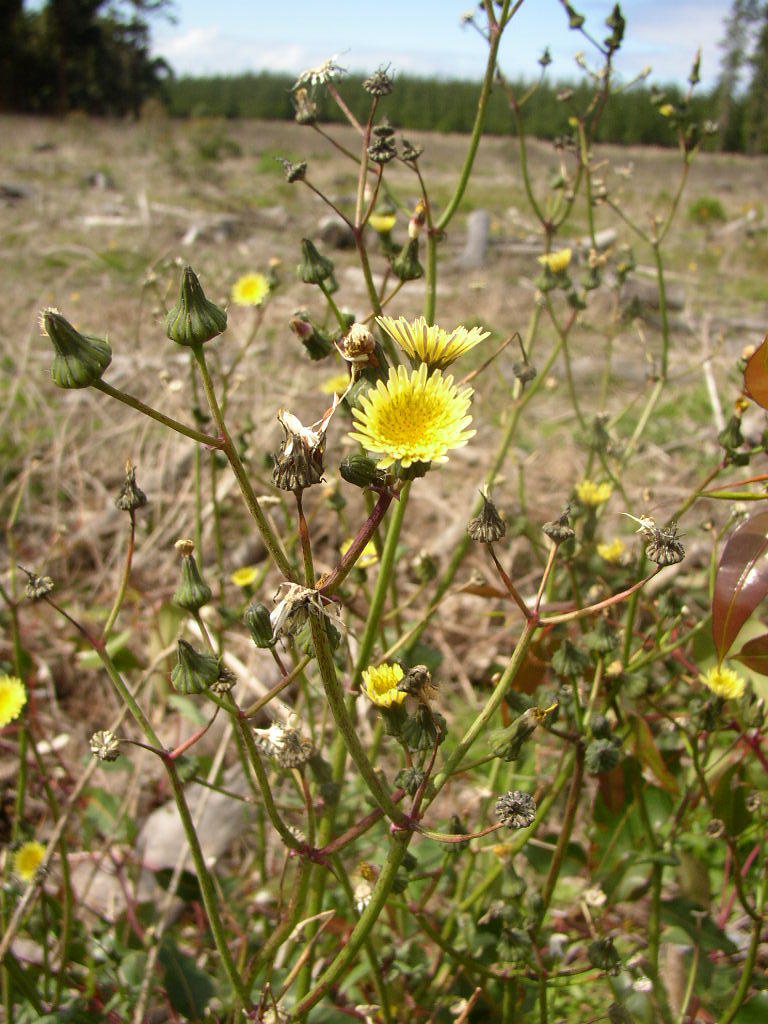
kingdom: Plantae
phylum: Tracheophyta
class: Magnoliopsida
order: Asterales
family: Asteraceae
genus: Sonchus
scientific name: Sonchus oleraceus
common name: Common sowthistle
